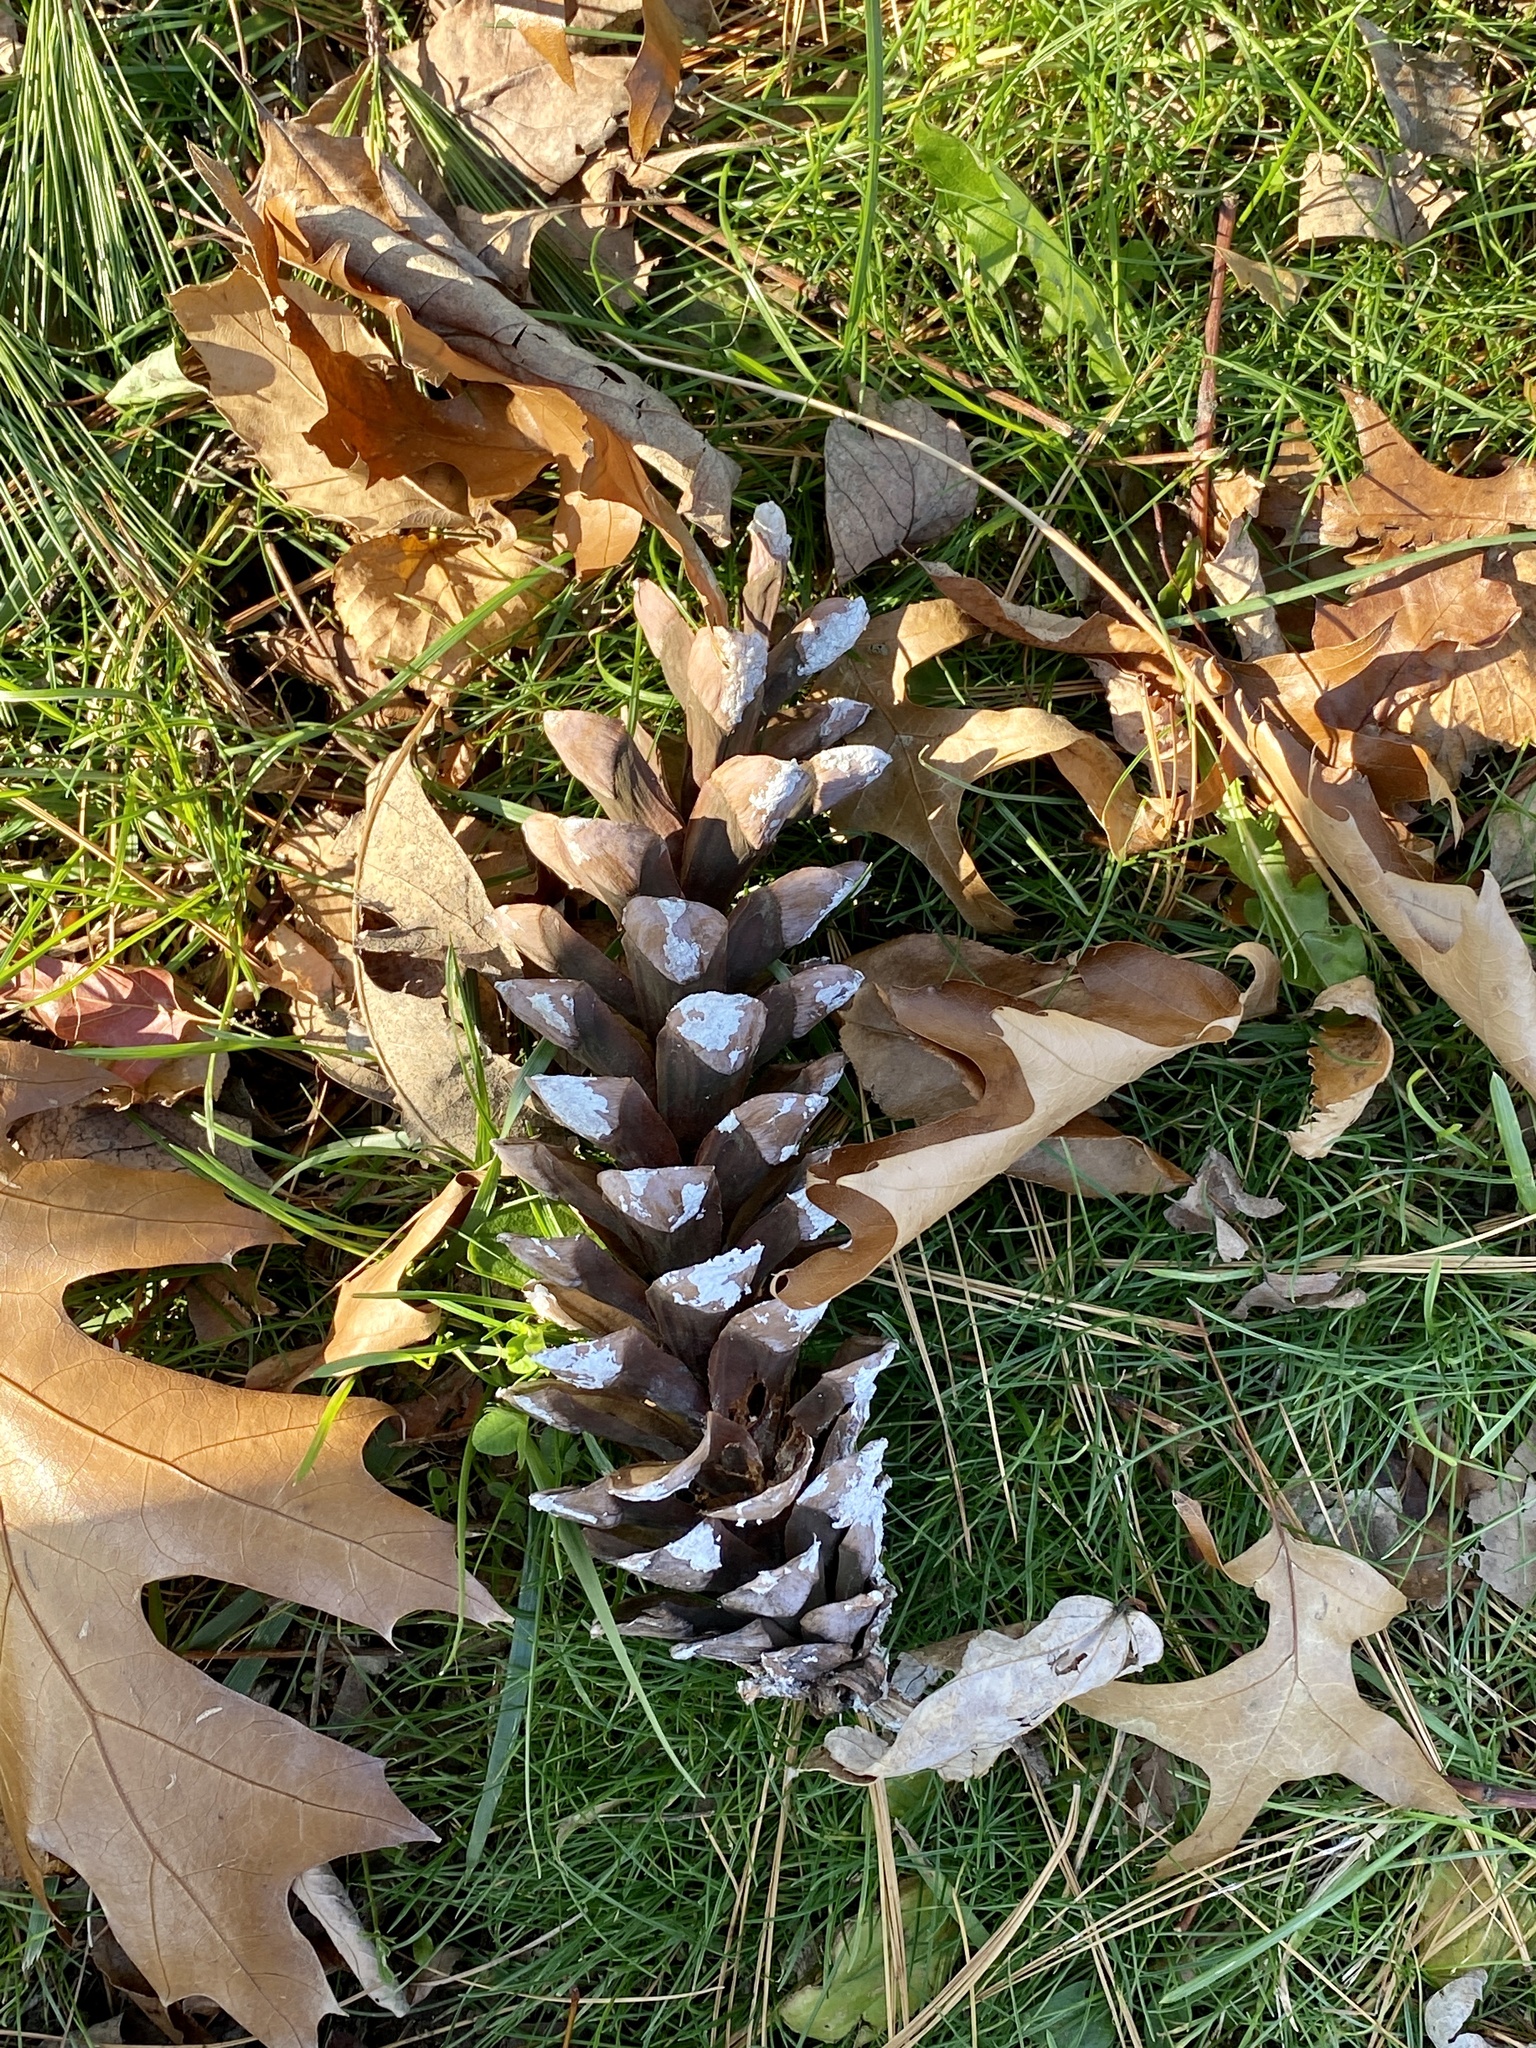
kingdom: Plantae
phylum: Tracheophyta
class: Pinopsida
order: Pinales
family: Pinaceae
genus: Pinus
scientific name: Pinus strobus
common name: Weymouth pine
